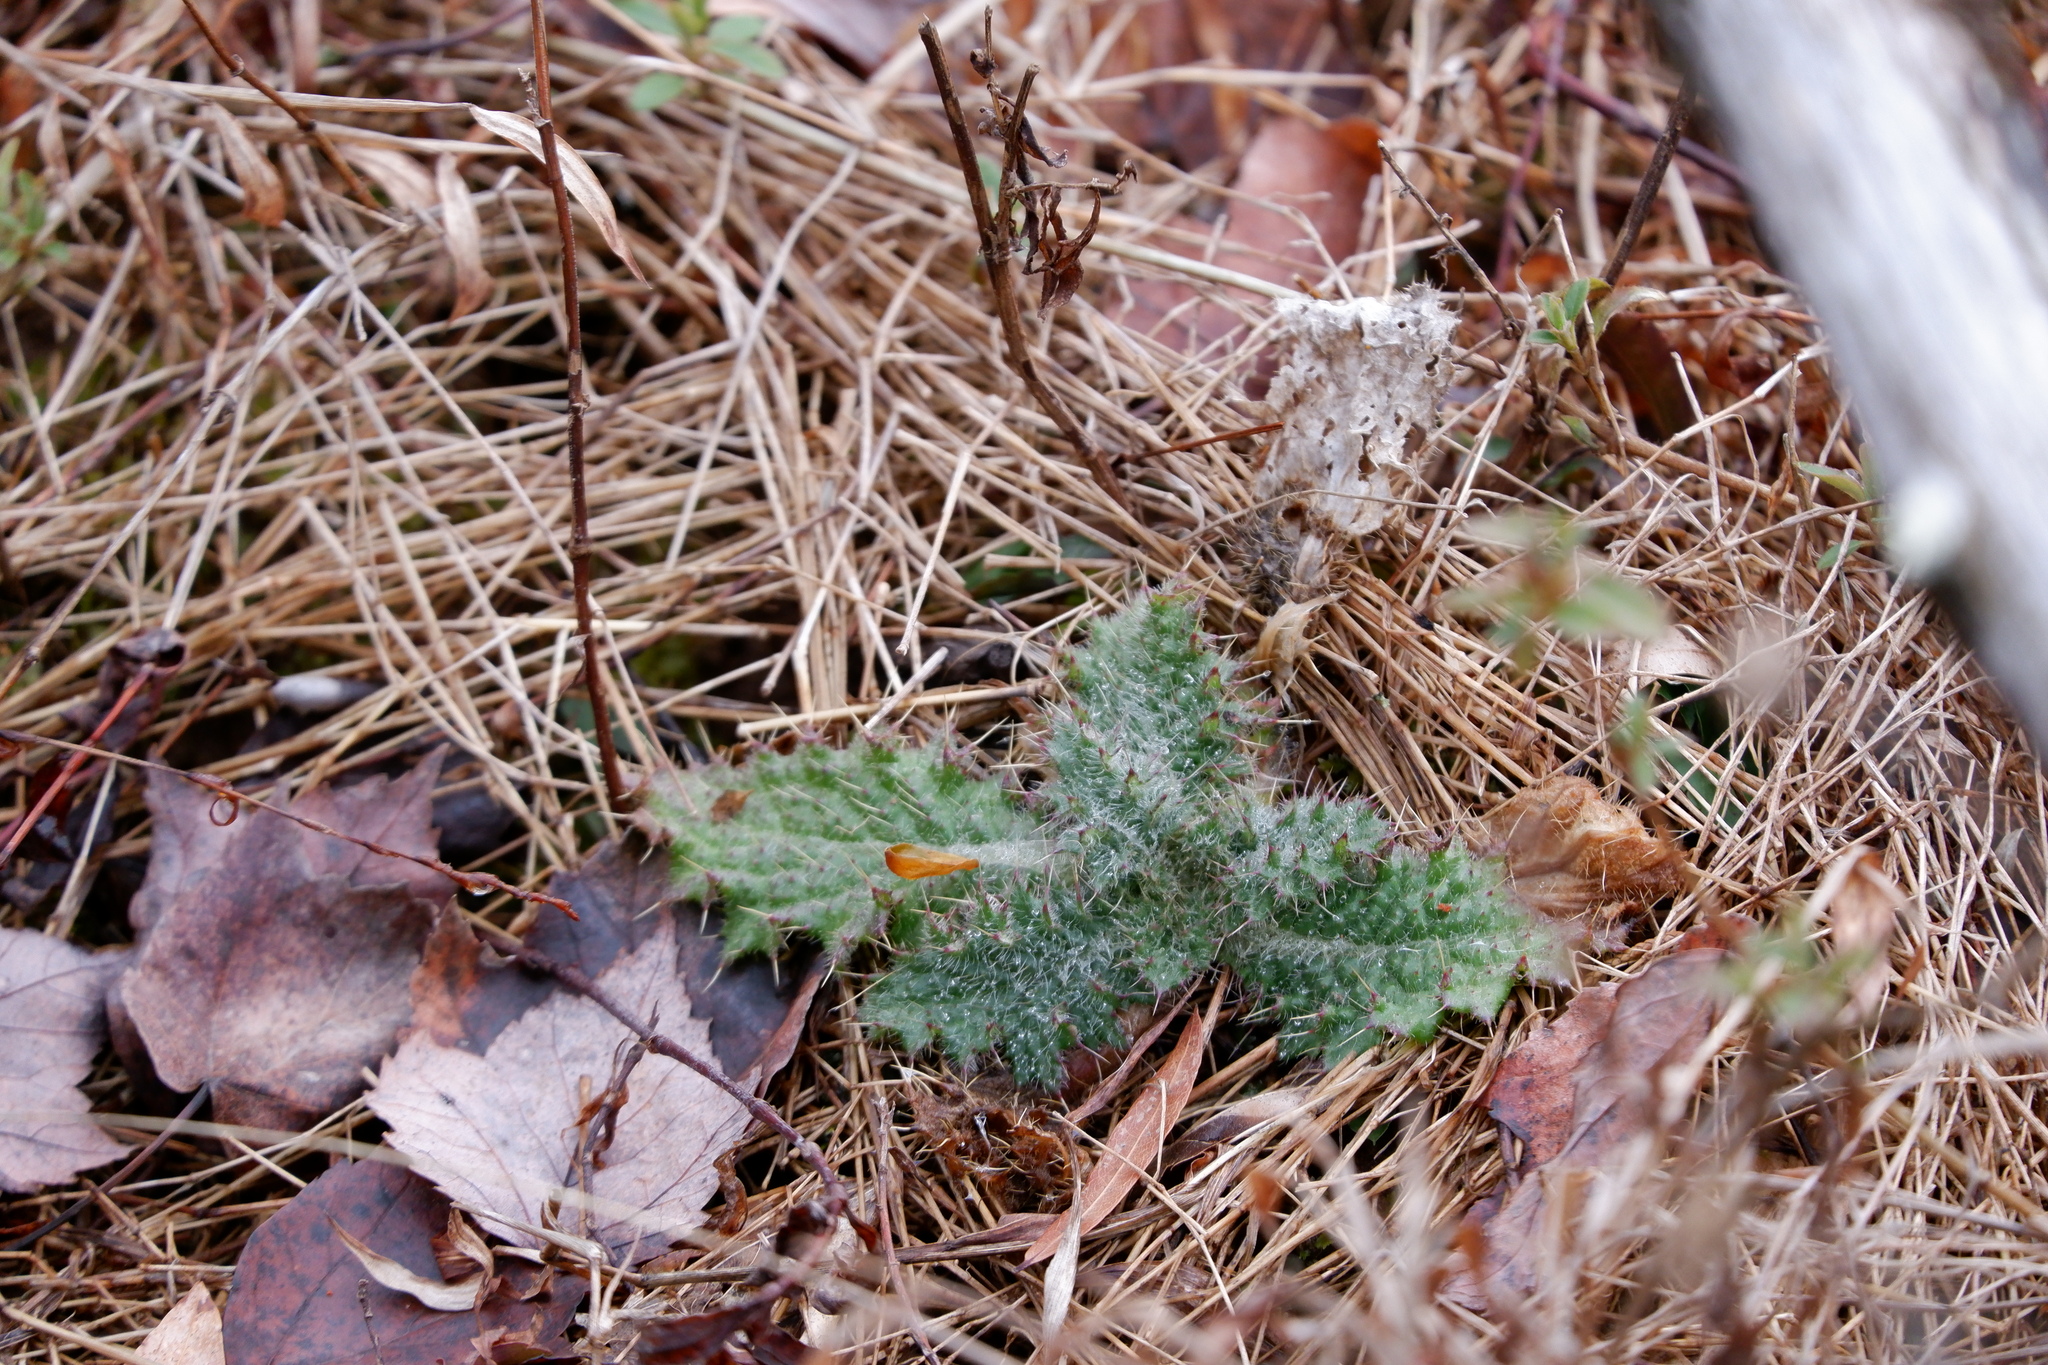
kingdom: Plantae
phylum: Tracheophyta
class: Magnoliopsida
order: Asterales
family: Asteraceae
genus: Cirsium
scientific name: Cirsium vulgare
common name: Bull thistle
